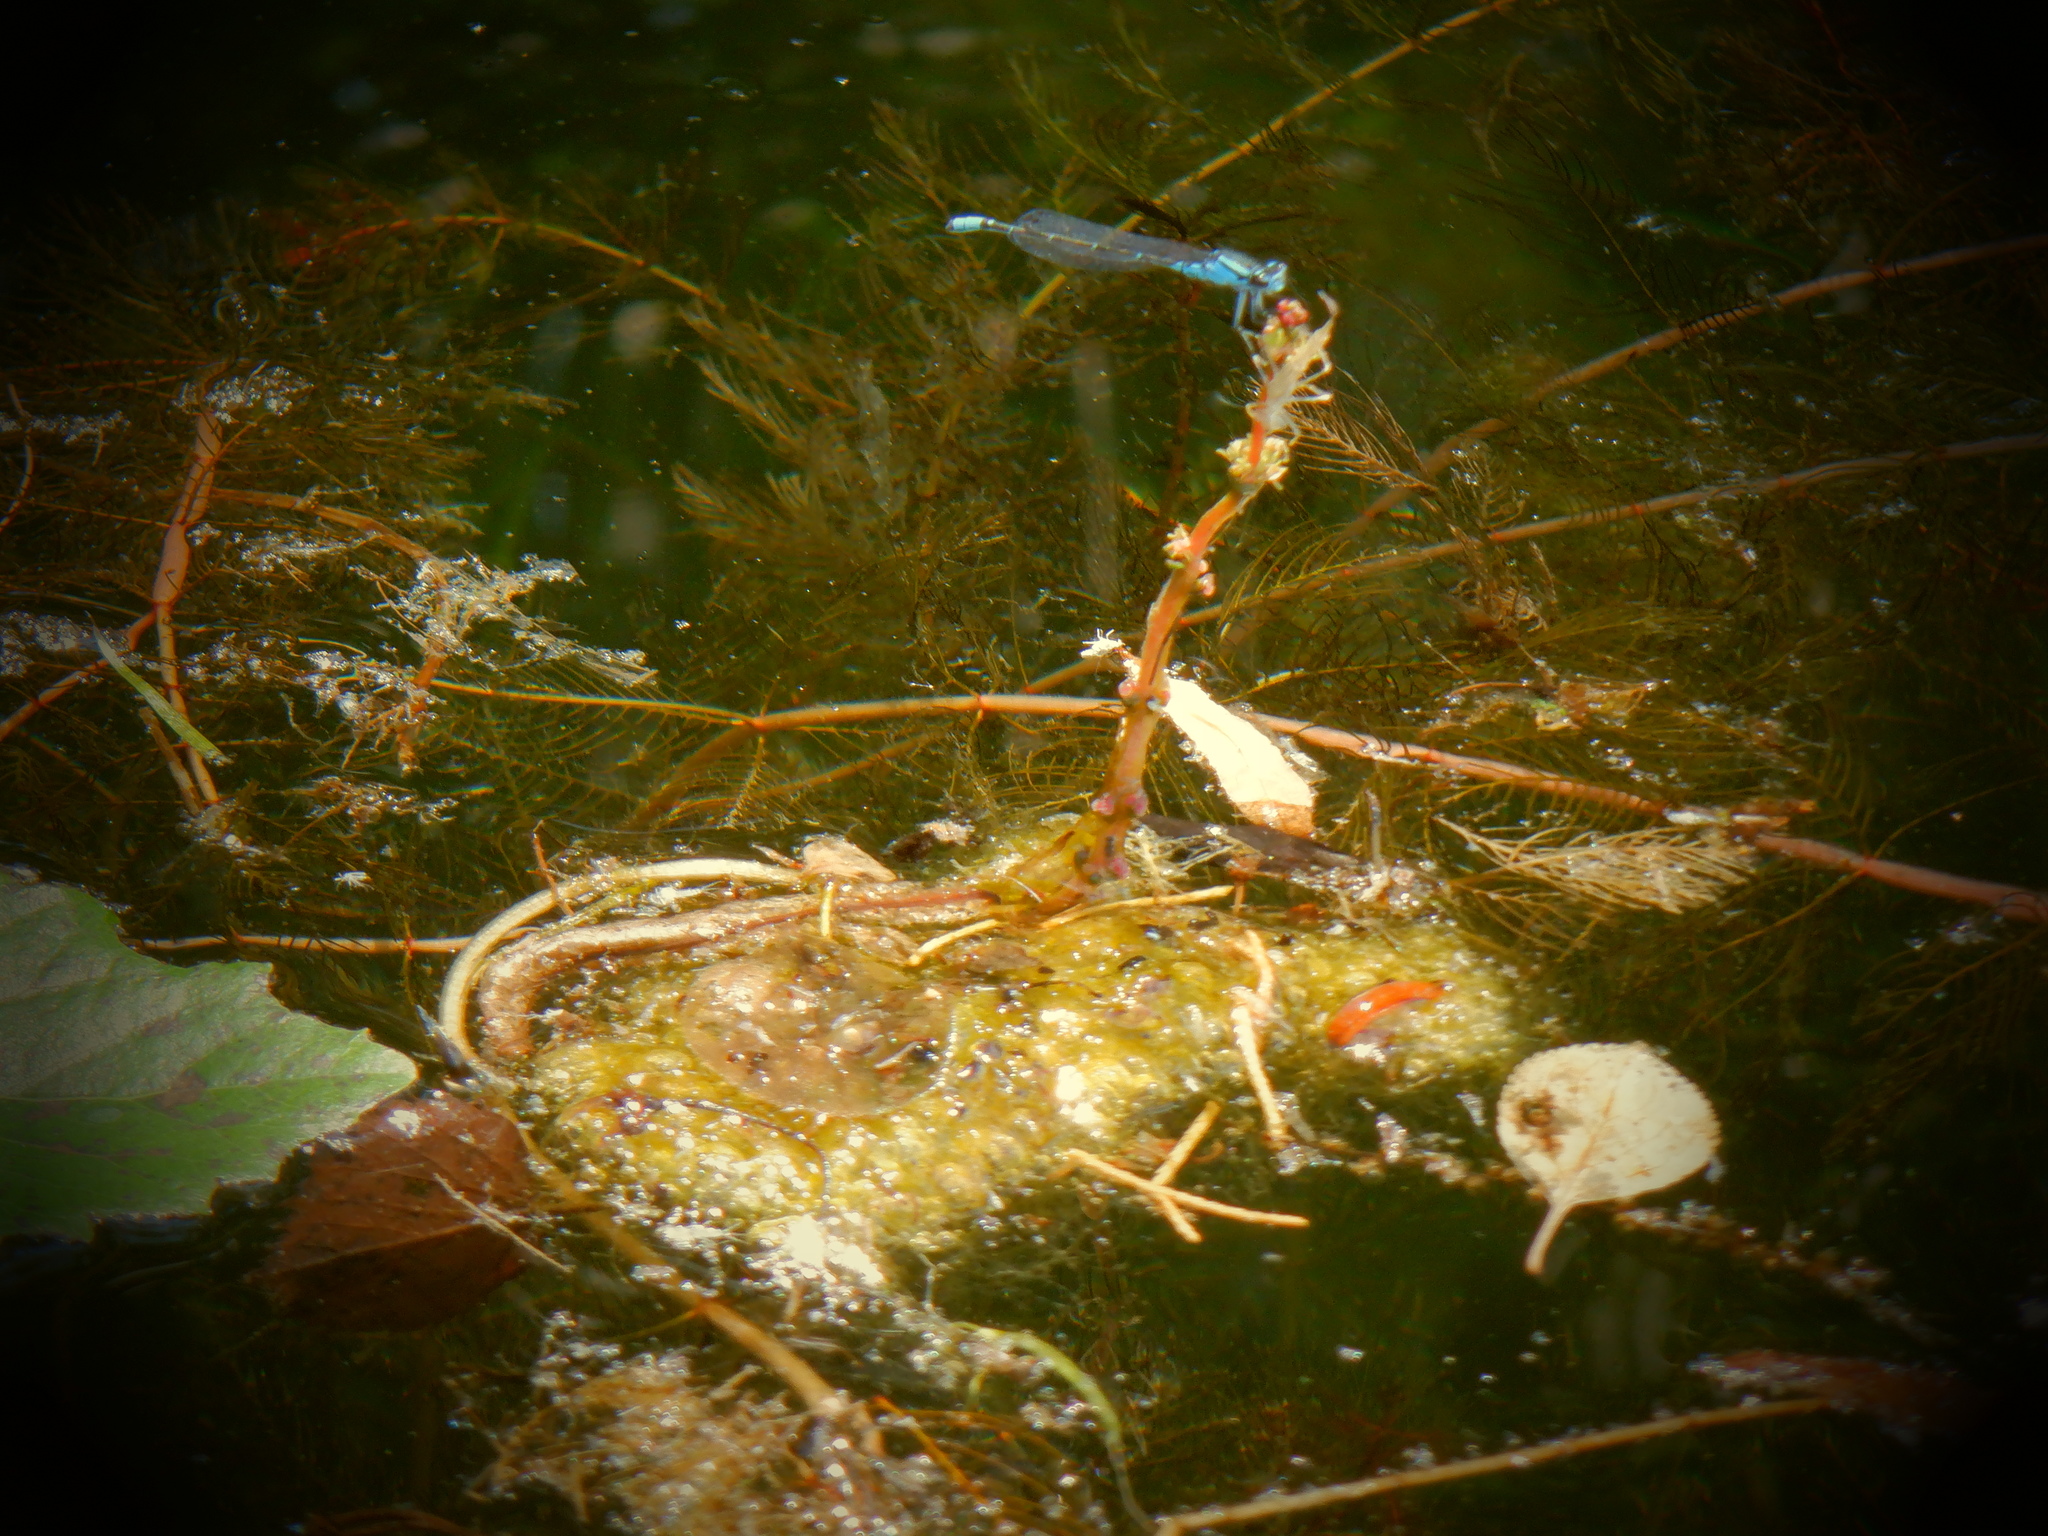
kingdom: Animalia
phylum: Arthropoda
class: Insecta
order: Odonata
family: Coenagrionidae
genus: Enallagma
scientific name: Enallagma geminatum
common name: Skimming bluet
